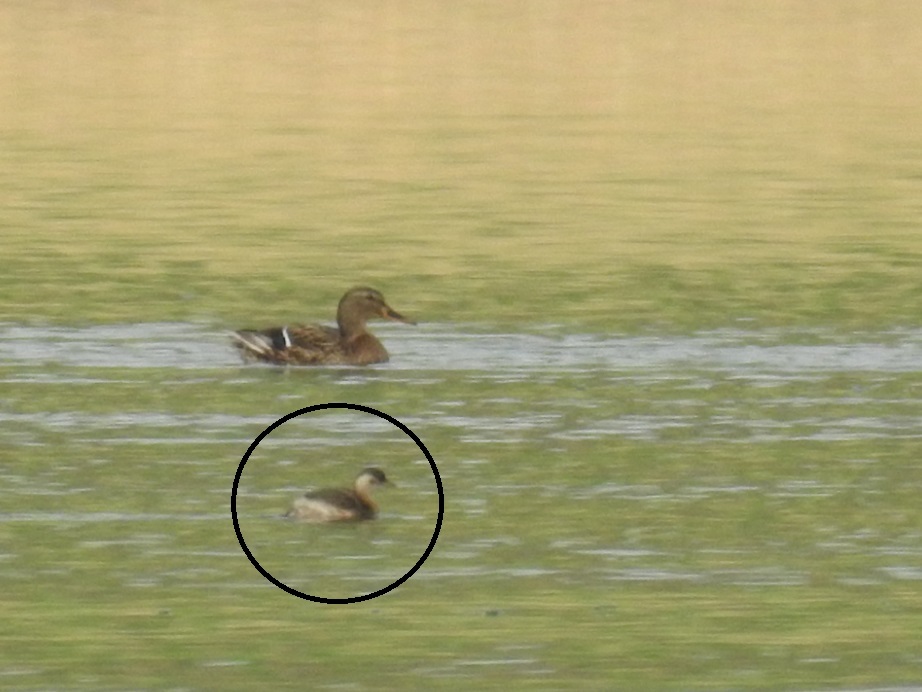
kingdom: Animalia
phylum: Chordata
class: Aves
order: Podicipediformes
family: Podicipedidae
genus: Tachybaptus
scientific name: Tachybaptus ruficollis
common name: Little grebe
